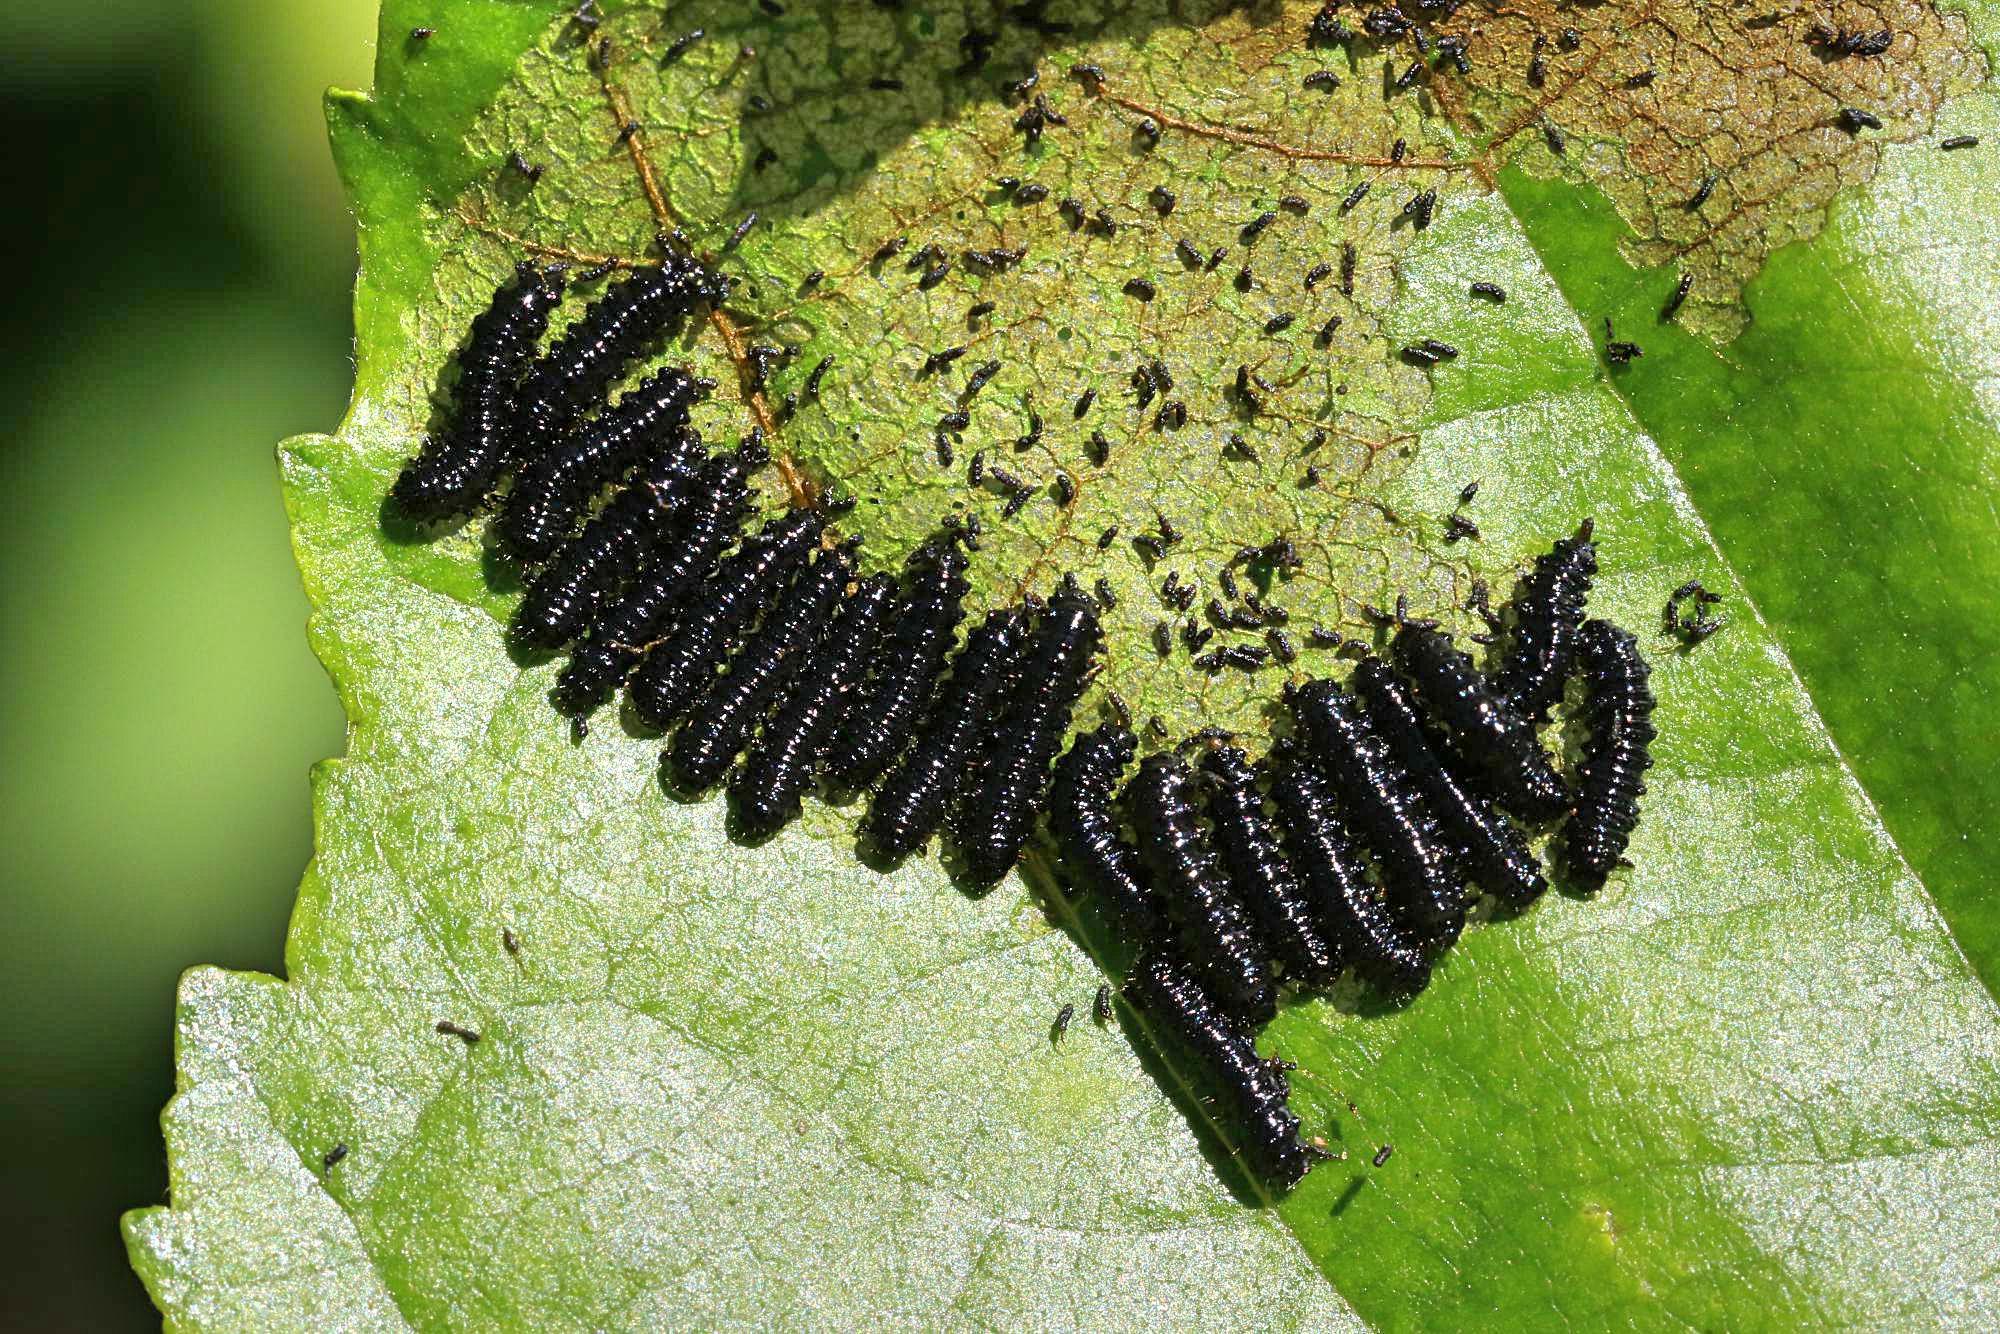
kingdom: Animalia
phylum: Arthropoda
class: Insecta
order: Coleoptera
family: Chrysomelidae
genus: Agelastica
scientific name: Agelastica alni
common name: Alder leaf beetle
